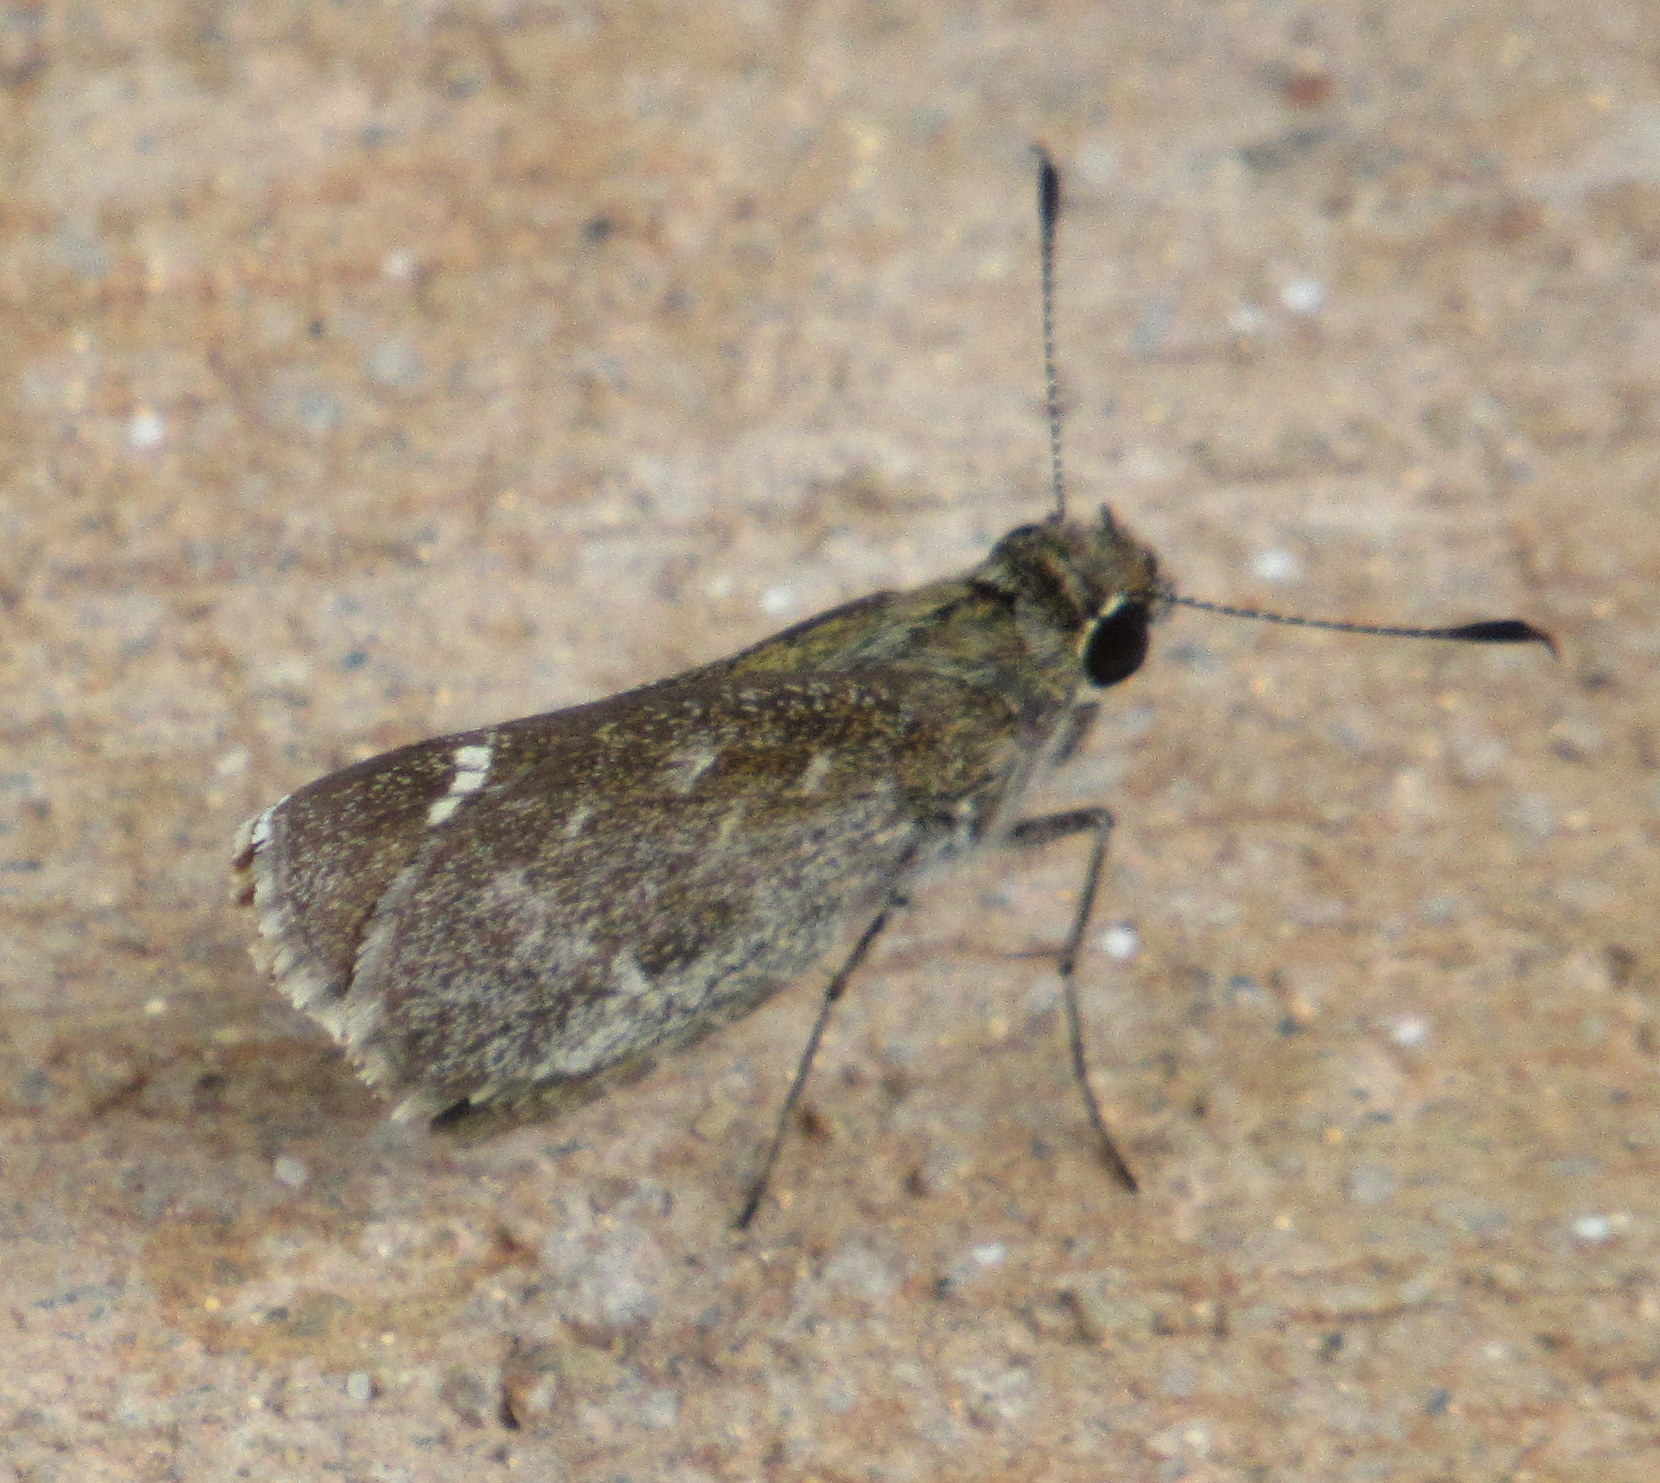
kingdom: Animalia
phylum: Arthropoda
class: Insecta
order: Lepidoptera
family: Hesperiidae
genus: Mastor
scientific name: Mastor celia
